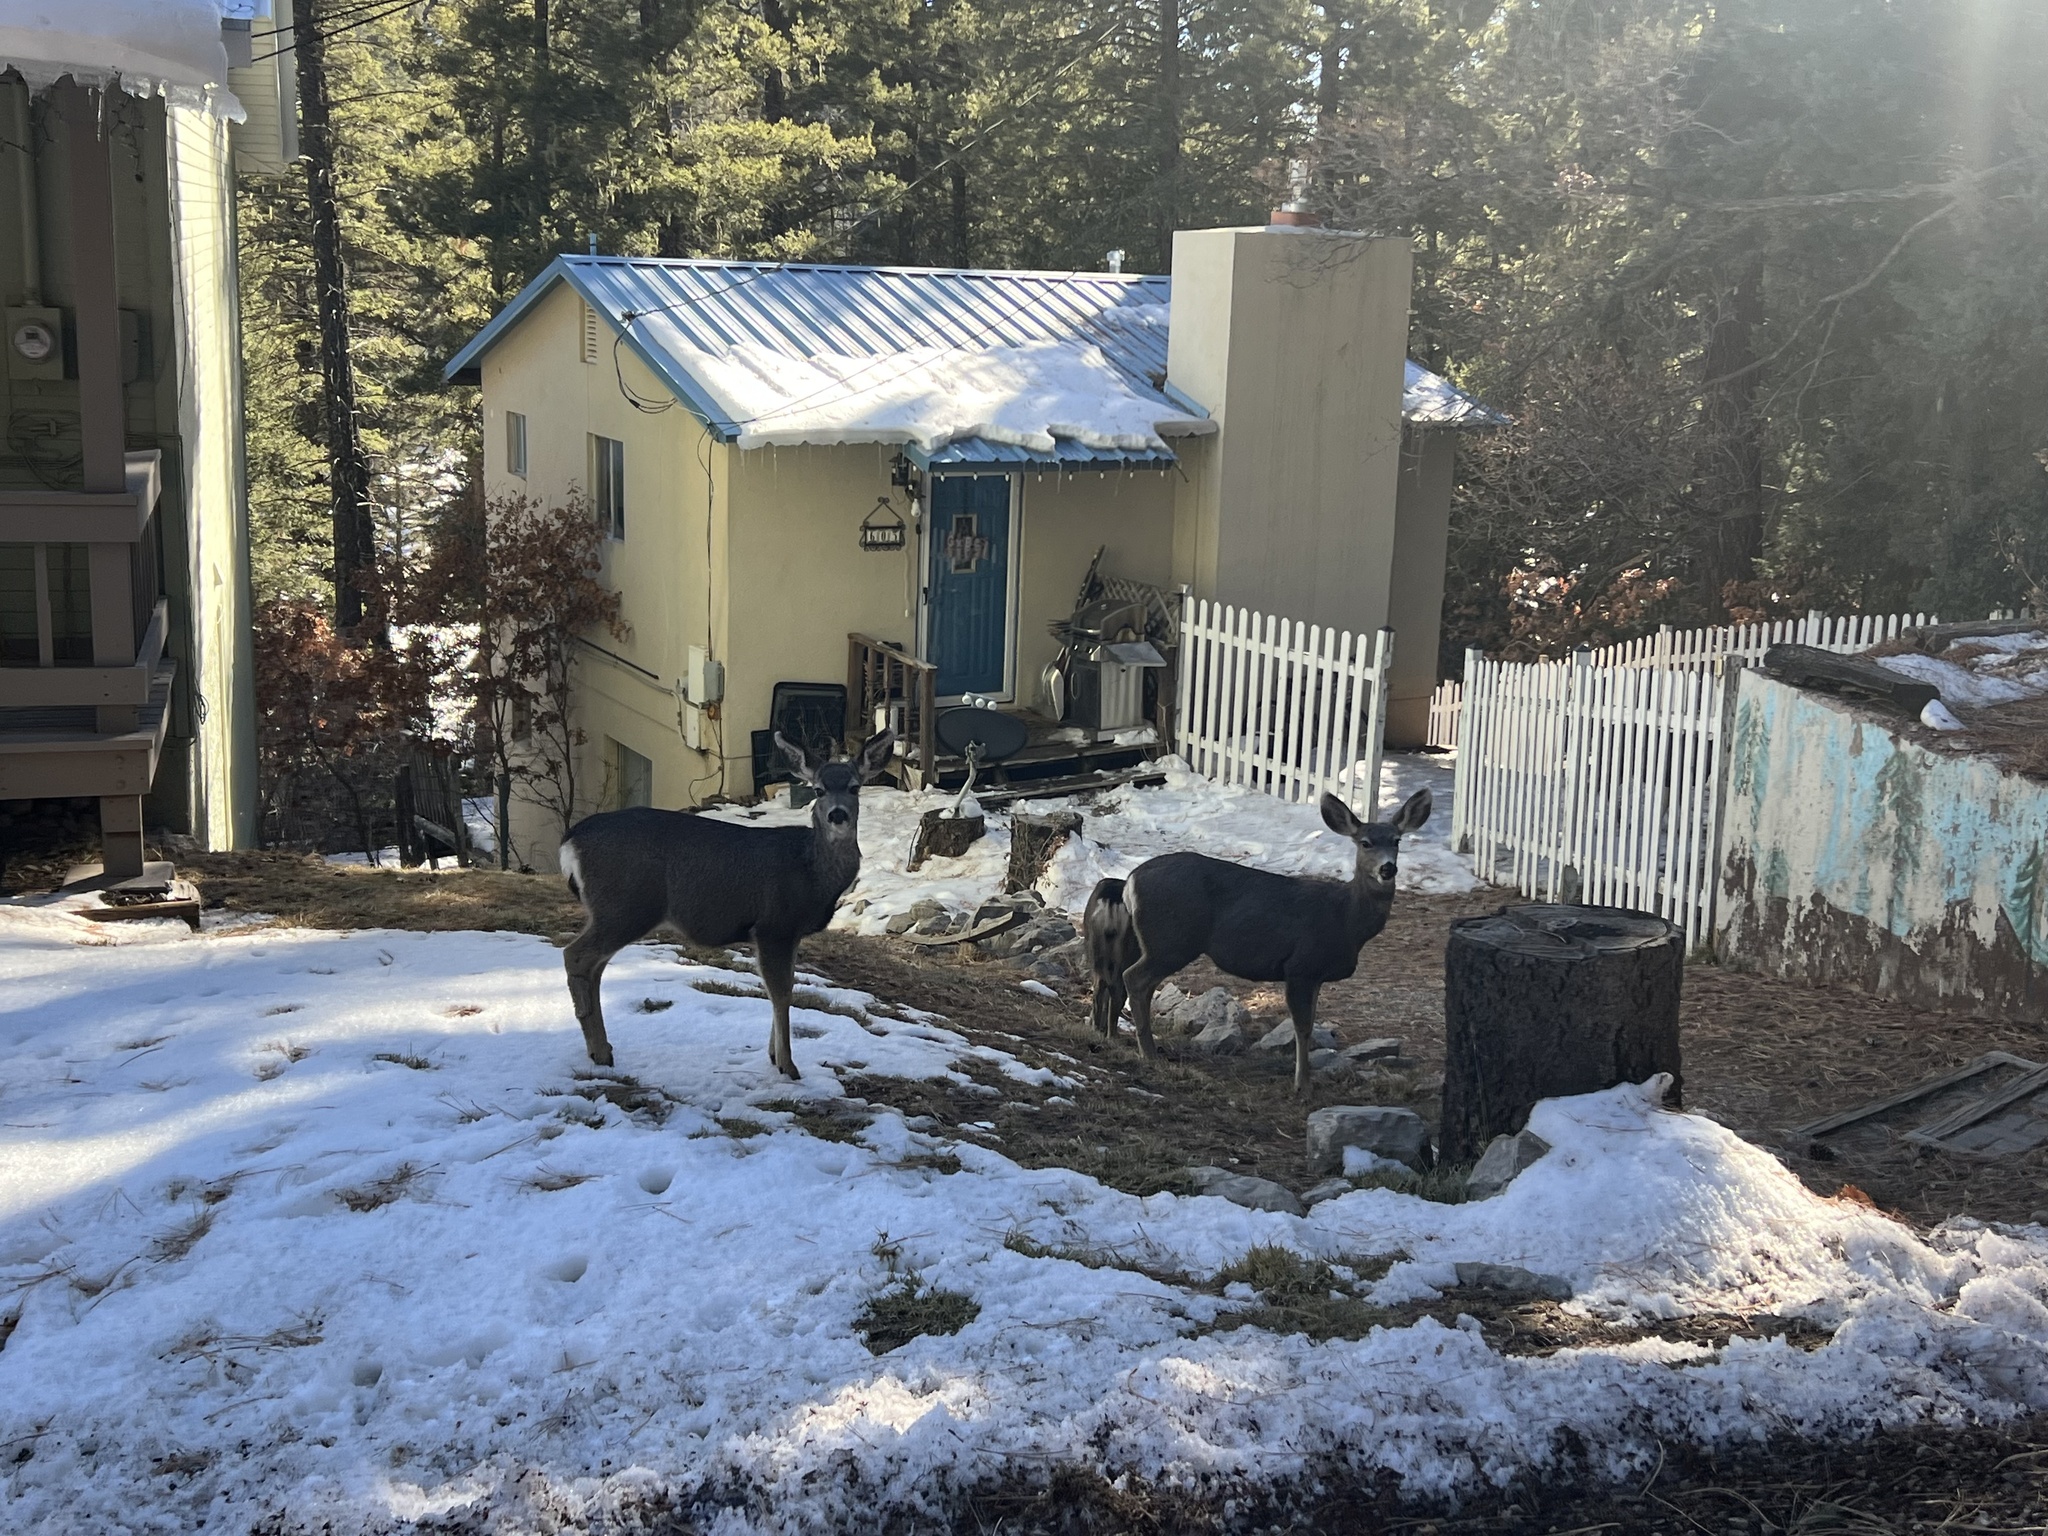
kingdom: Animalia
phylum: Chordata
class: Mammalia
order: Artiodactyla
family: Cervidae
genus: Odocoileus
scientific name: Odocoileus hemionus
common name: Mule deer
